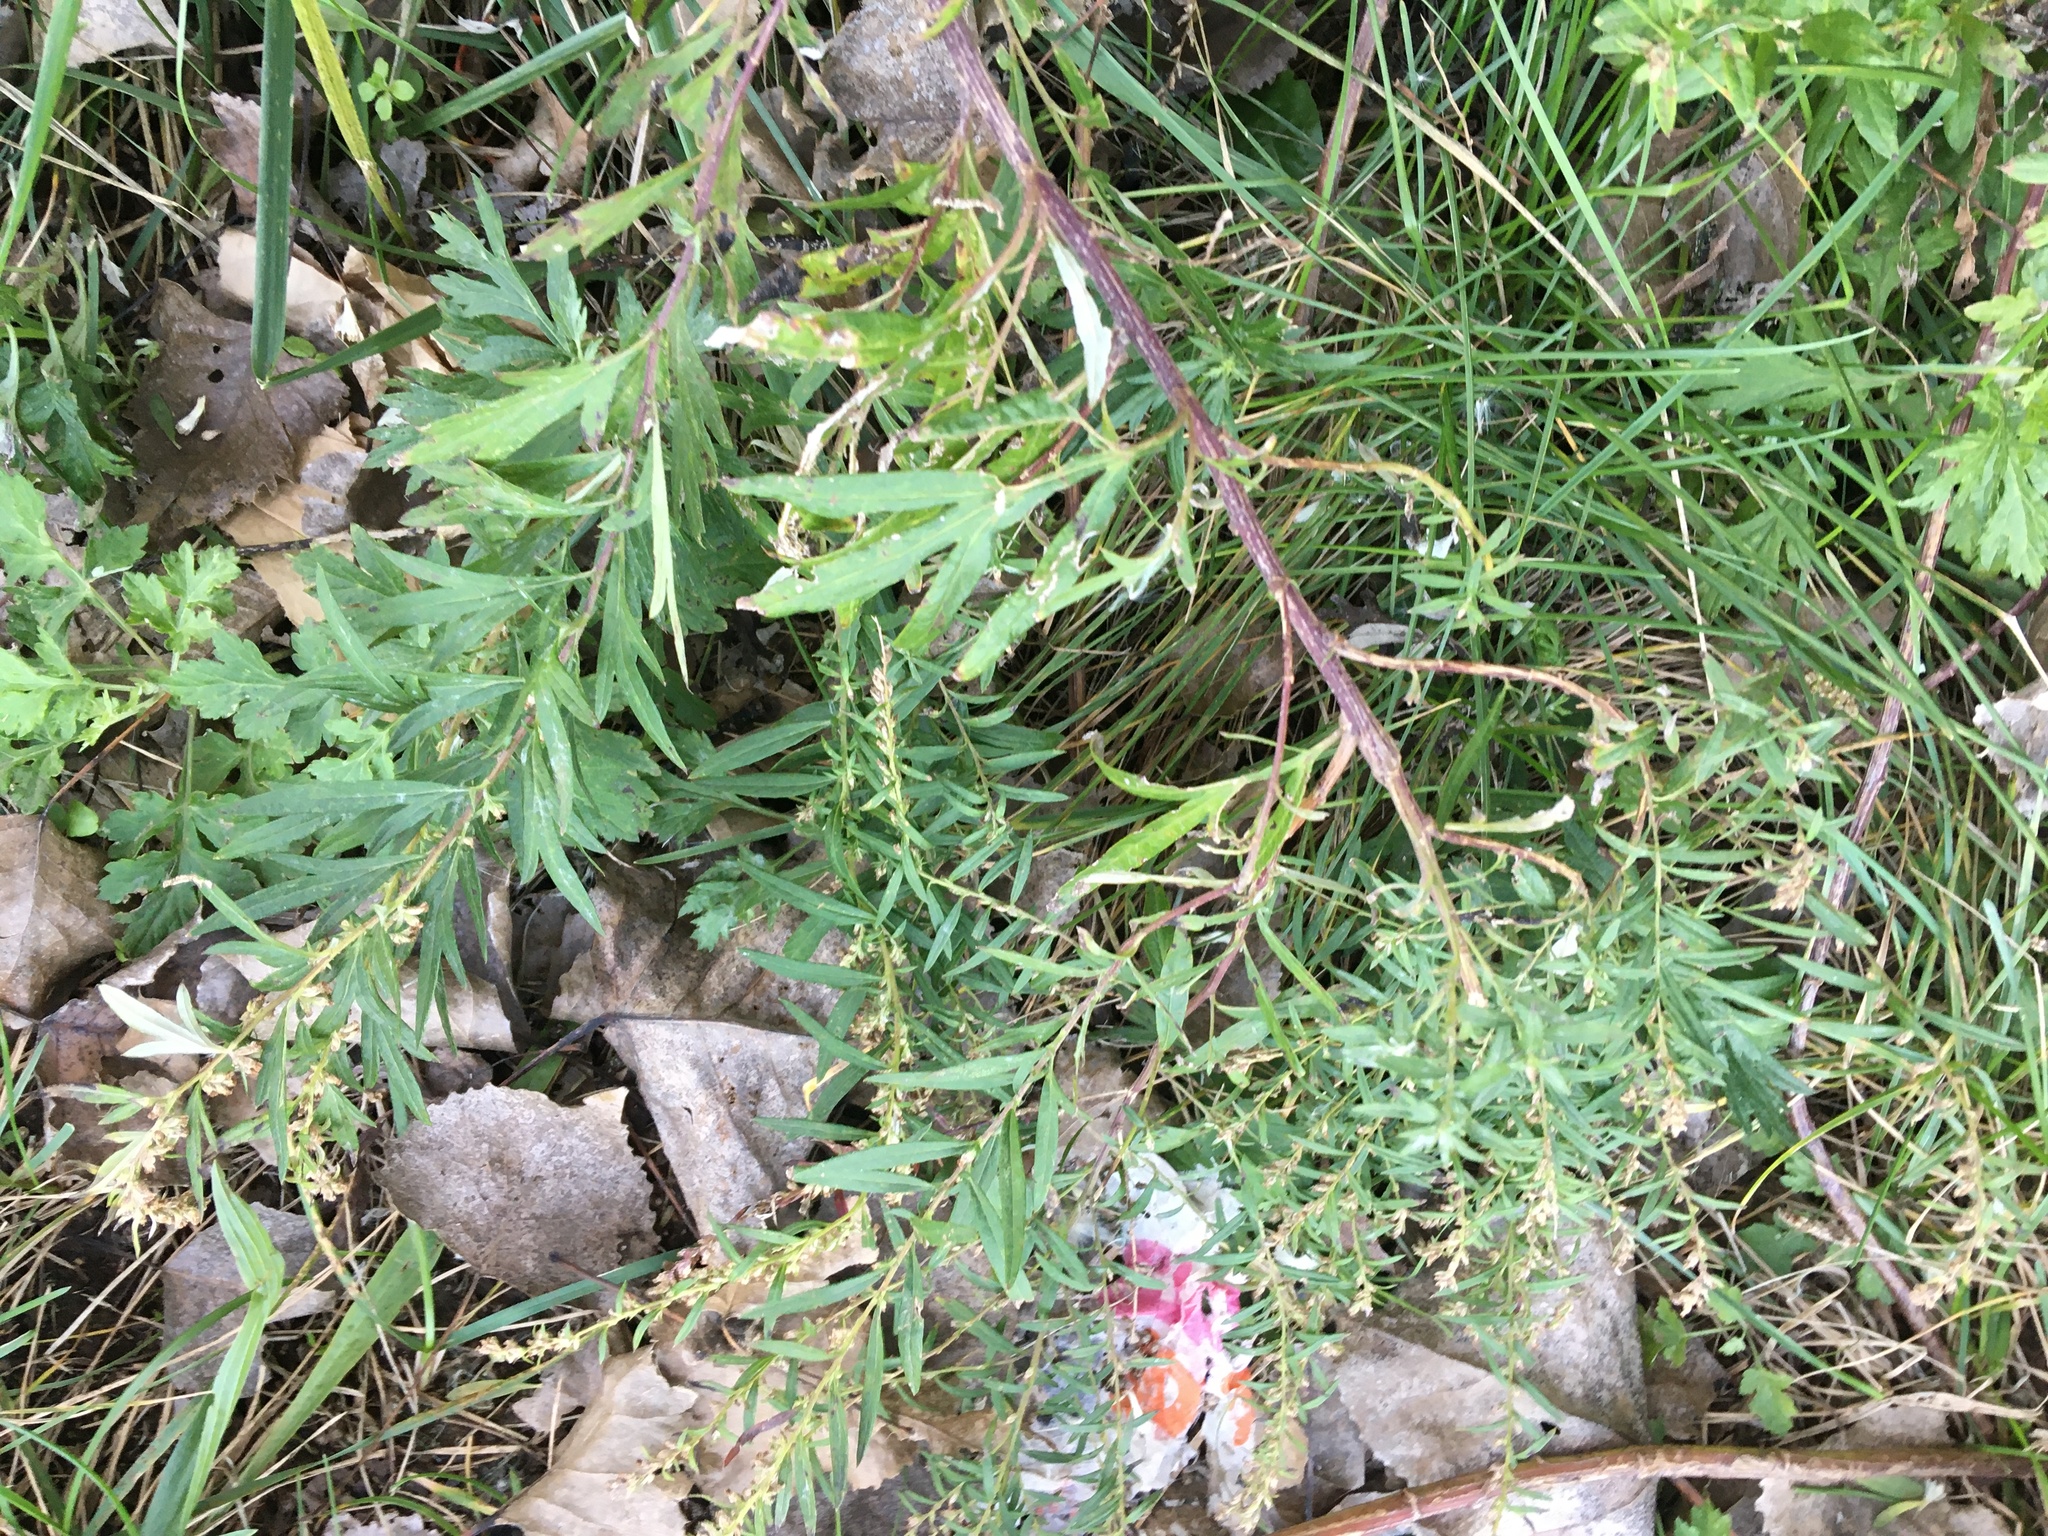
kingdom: Plantae
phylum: Tracheophyta
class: Magnoliopsida
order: Asterales
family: Asteraceae
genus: Artemisia
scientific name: Artemisia vulgaris
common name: Mugwort
